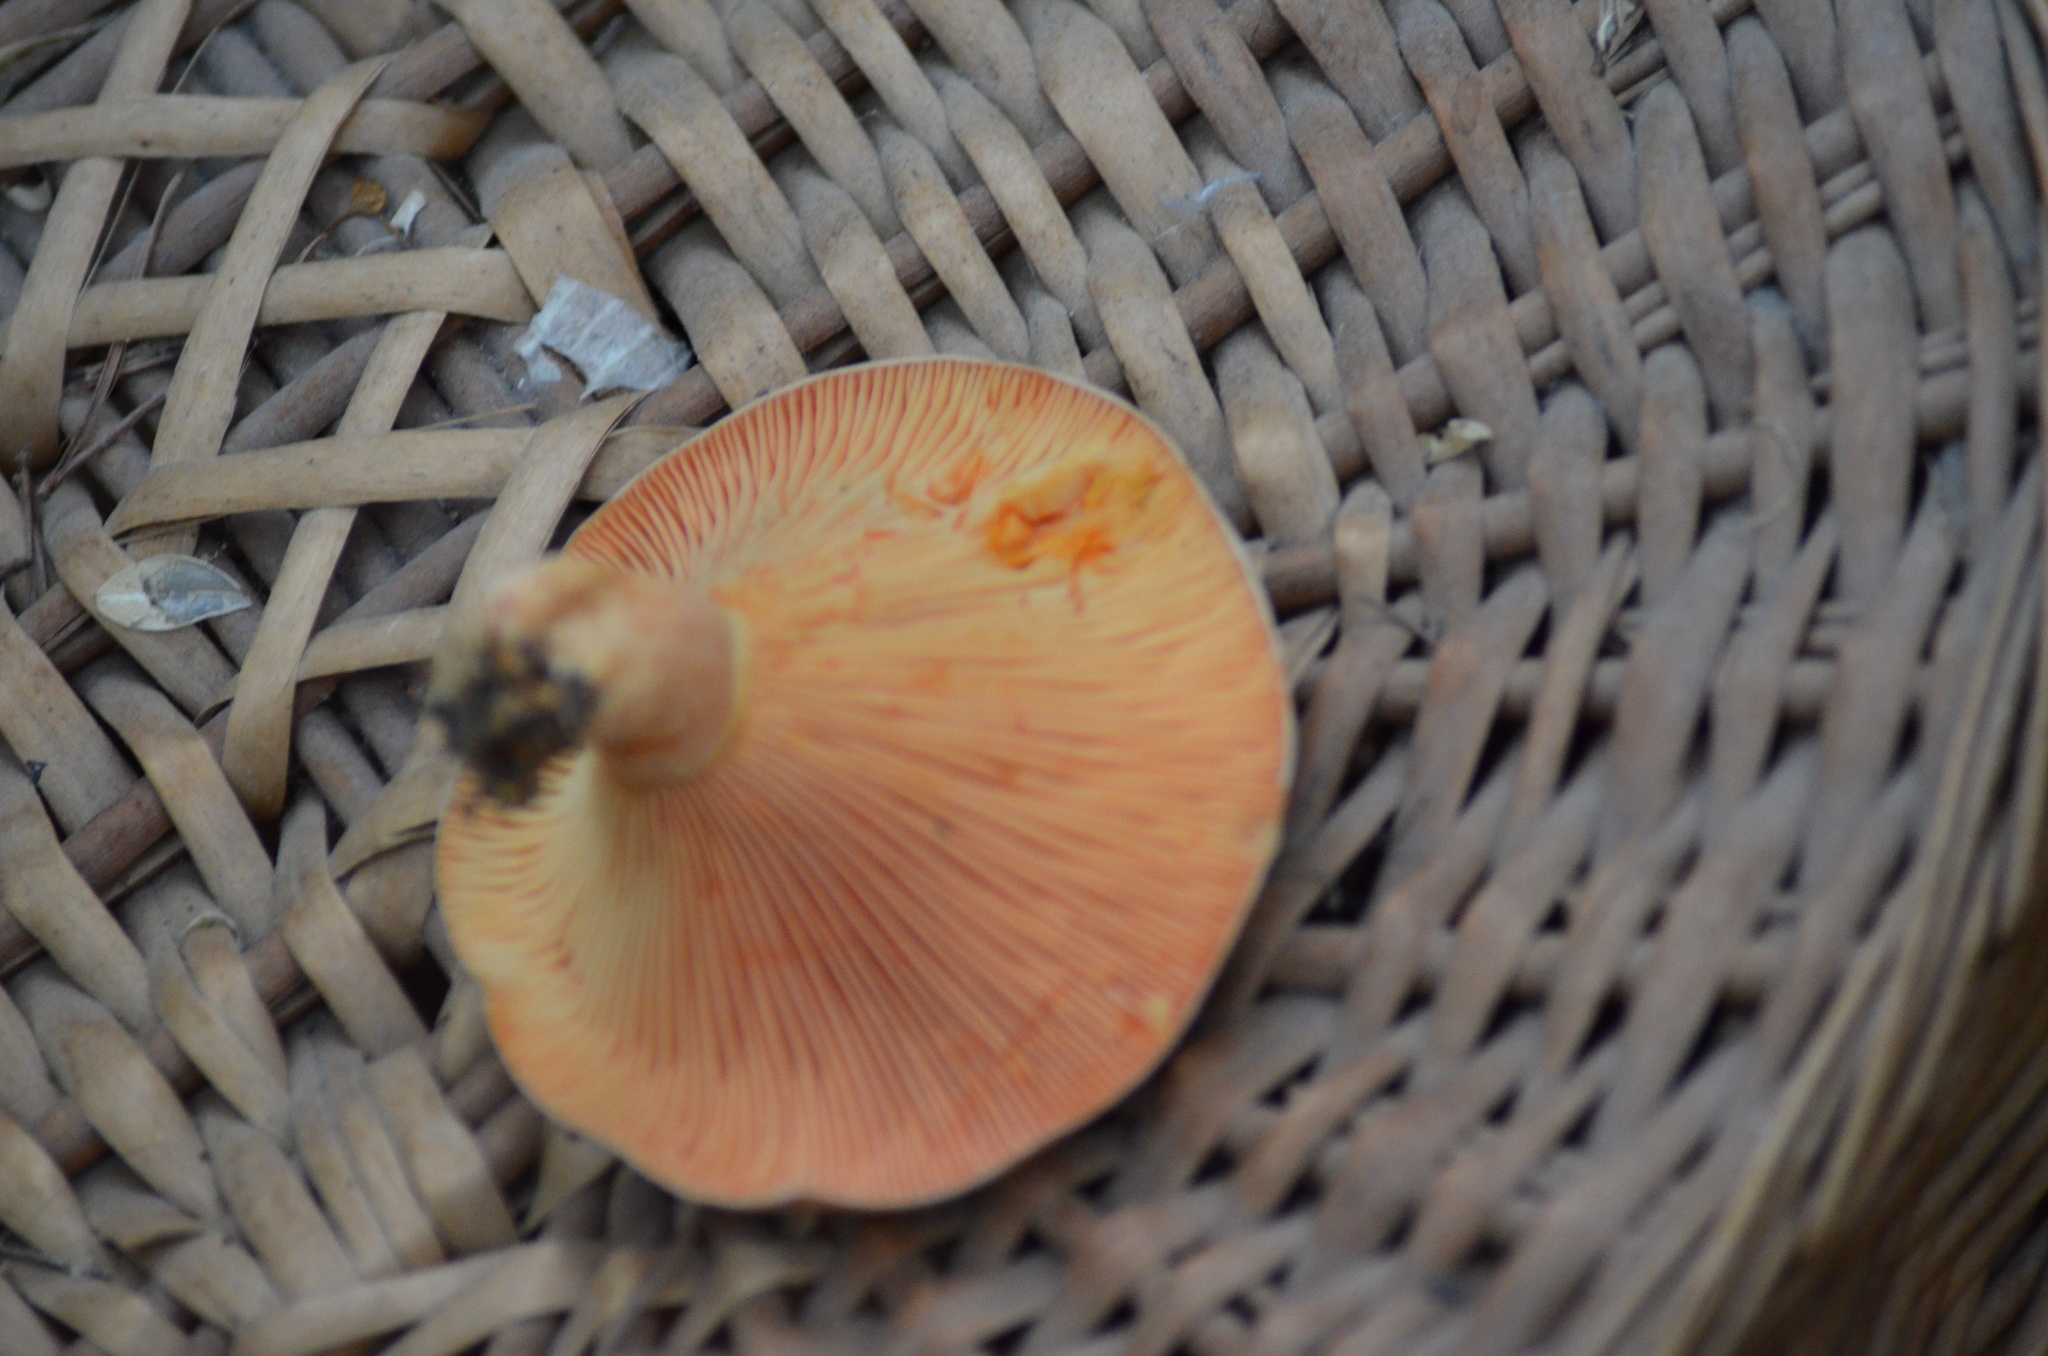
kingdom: Fungi
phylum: Basidiomycota
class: Agaricomycetes
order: Russulales
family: Russulaceae
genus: Lactarius
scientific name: Lactarius deliciosus
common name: Saffron milk-cap
